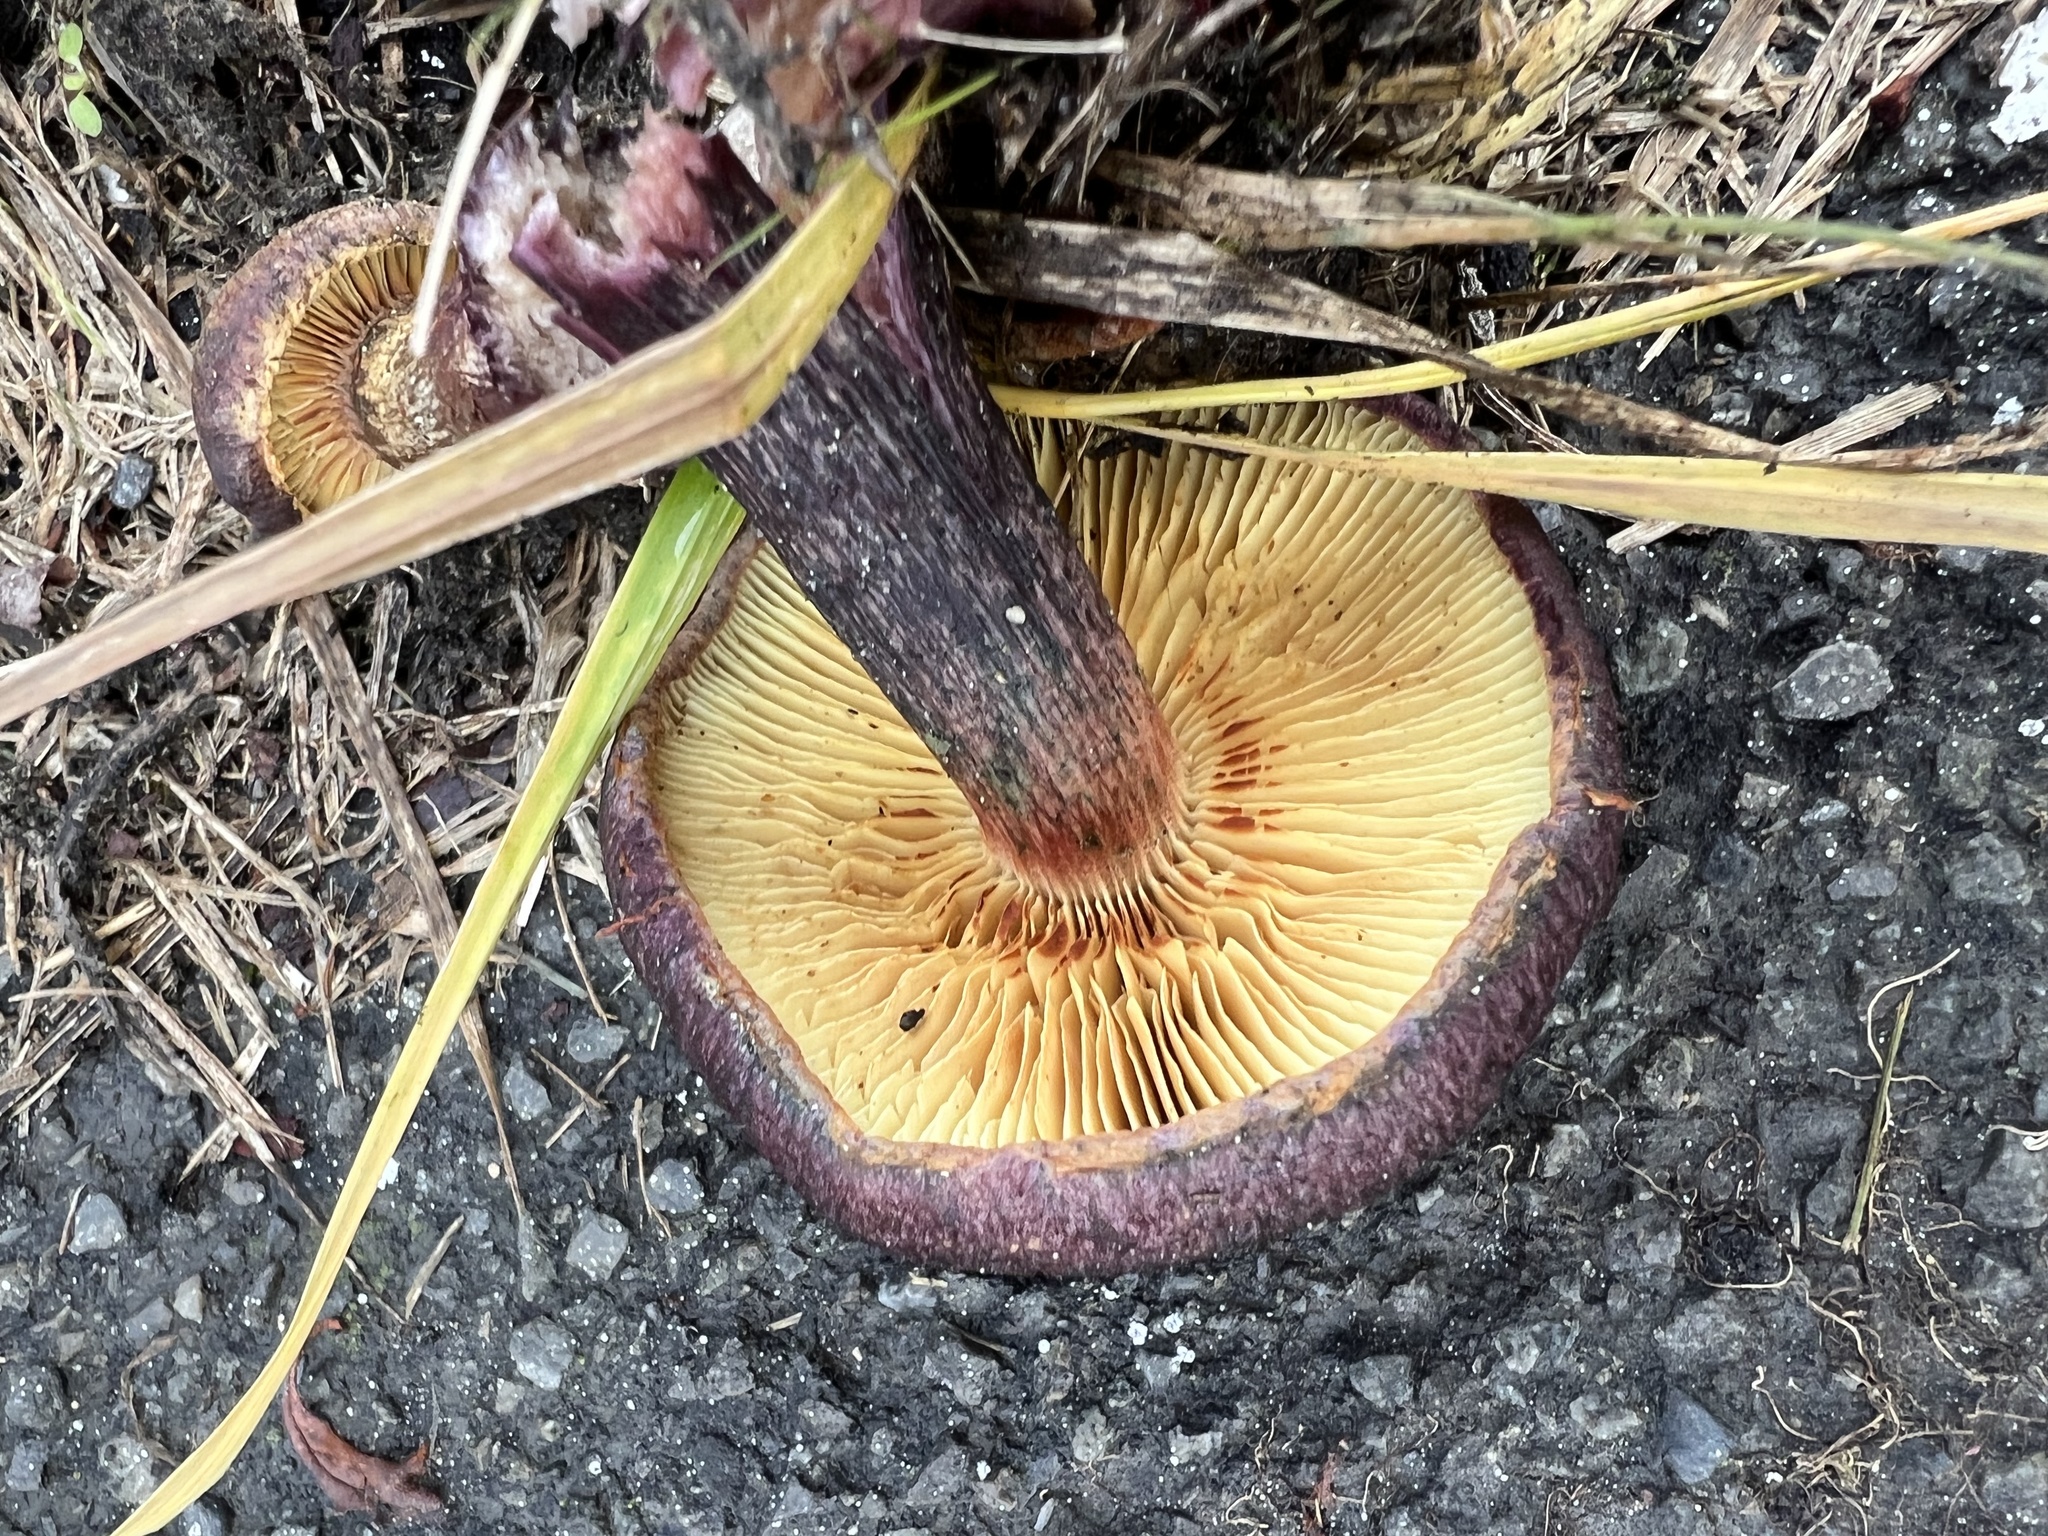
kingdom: Fungi
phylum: Basidiomycota
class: Agaricomycetes
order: Agaricales
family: Hymenogastraceae
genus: Gymnopilus
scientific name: Gymnopilus purpuratus
